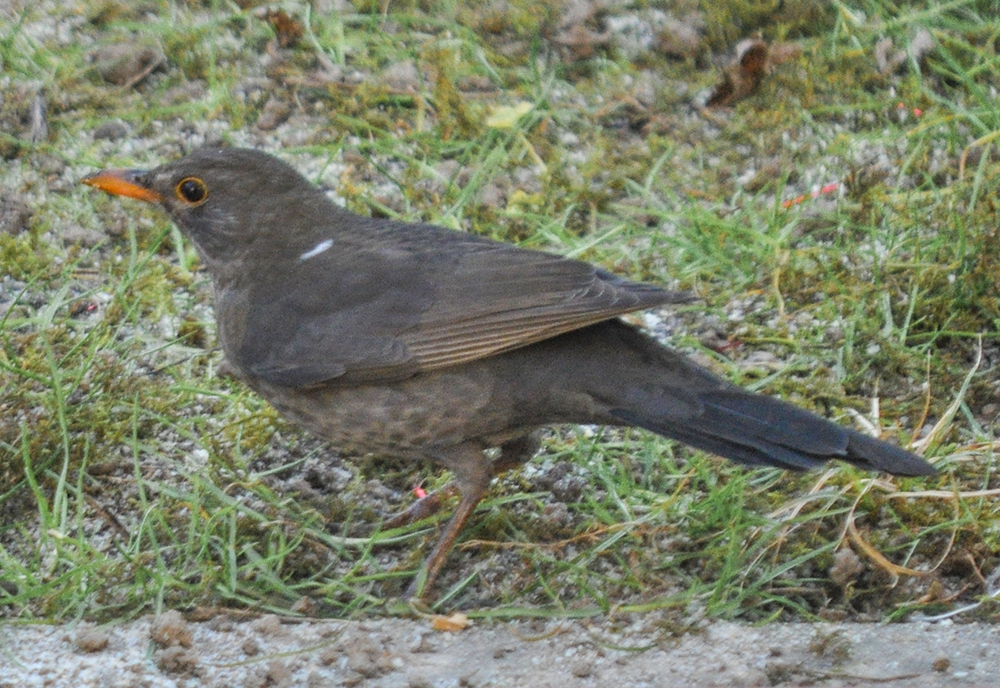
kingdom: Animalia
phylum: Chordata
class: Aves
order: Passeriformes
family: Turdidae
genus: Turdus
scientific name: Turdus merula
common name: Common blackbird
